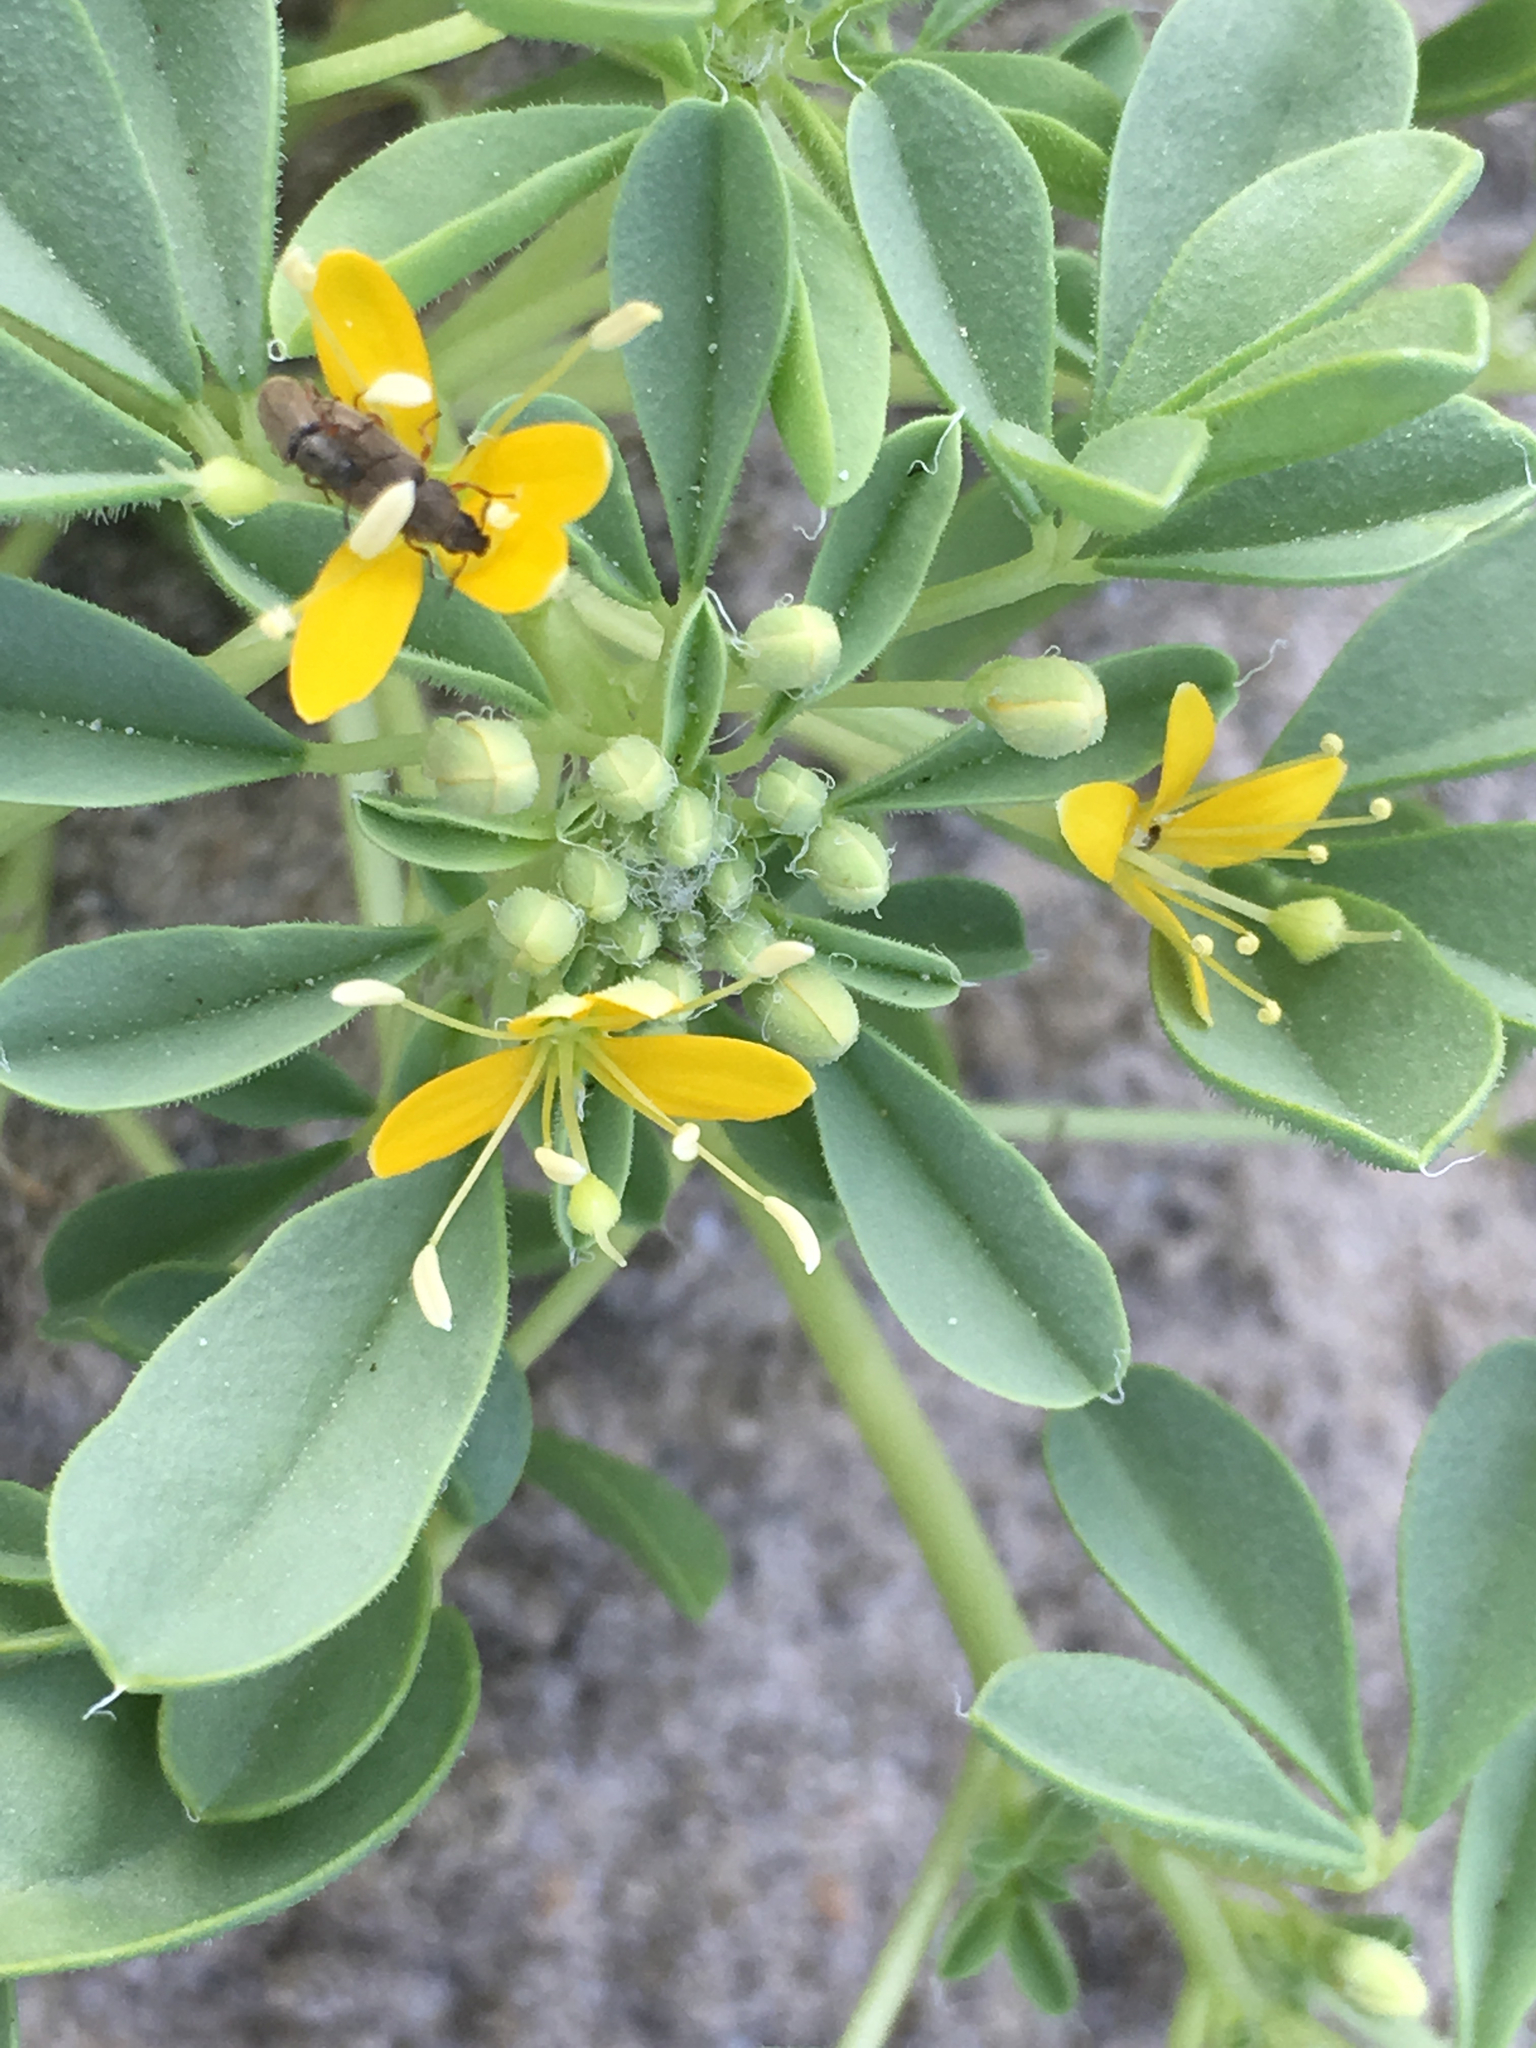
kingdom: Plantae
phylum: Tracheophyta
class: Magnoliopsida
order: Brassicales
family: Cleomaceae
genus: Cleomella
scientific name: Cleomella obtusifolia
